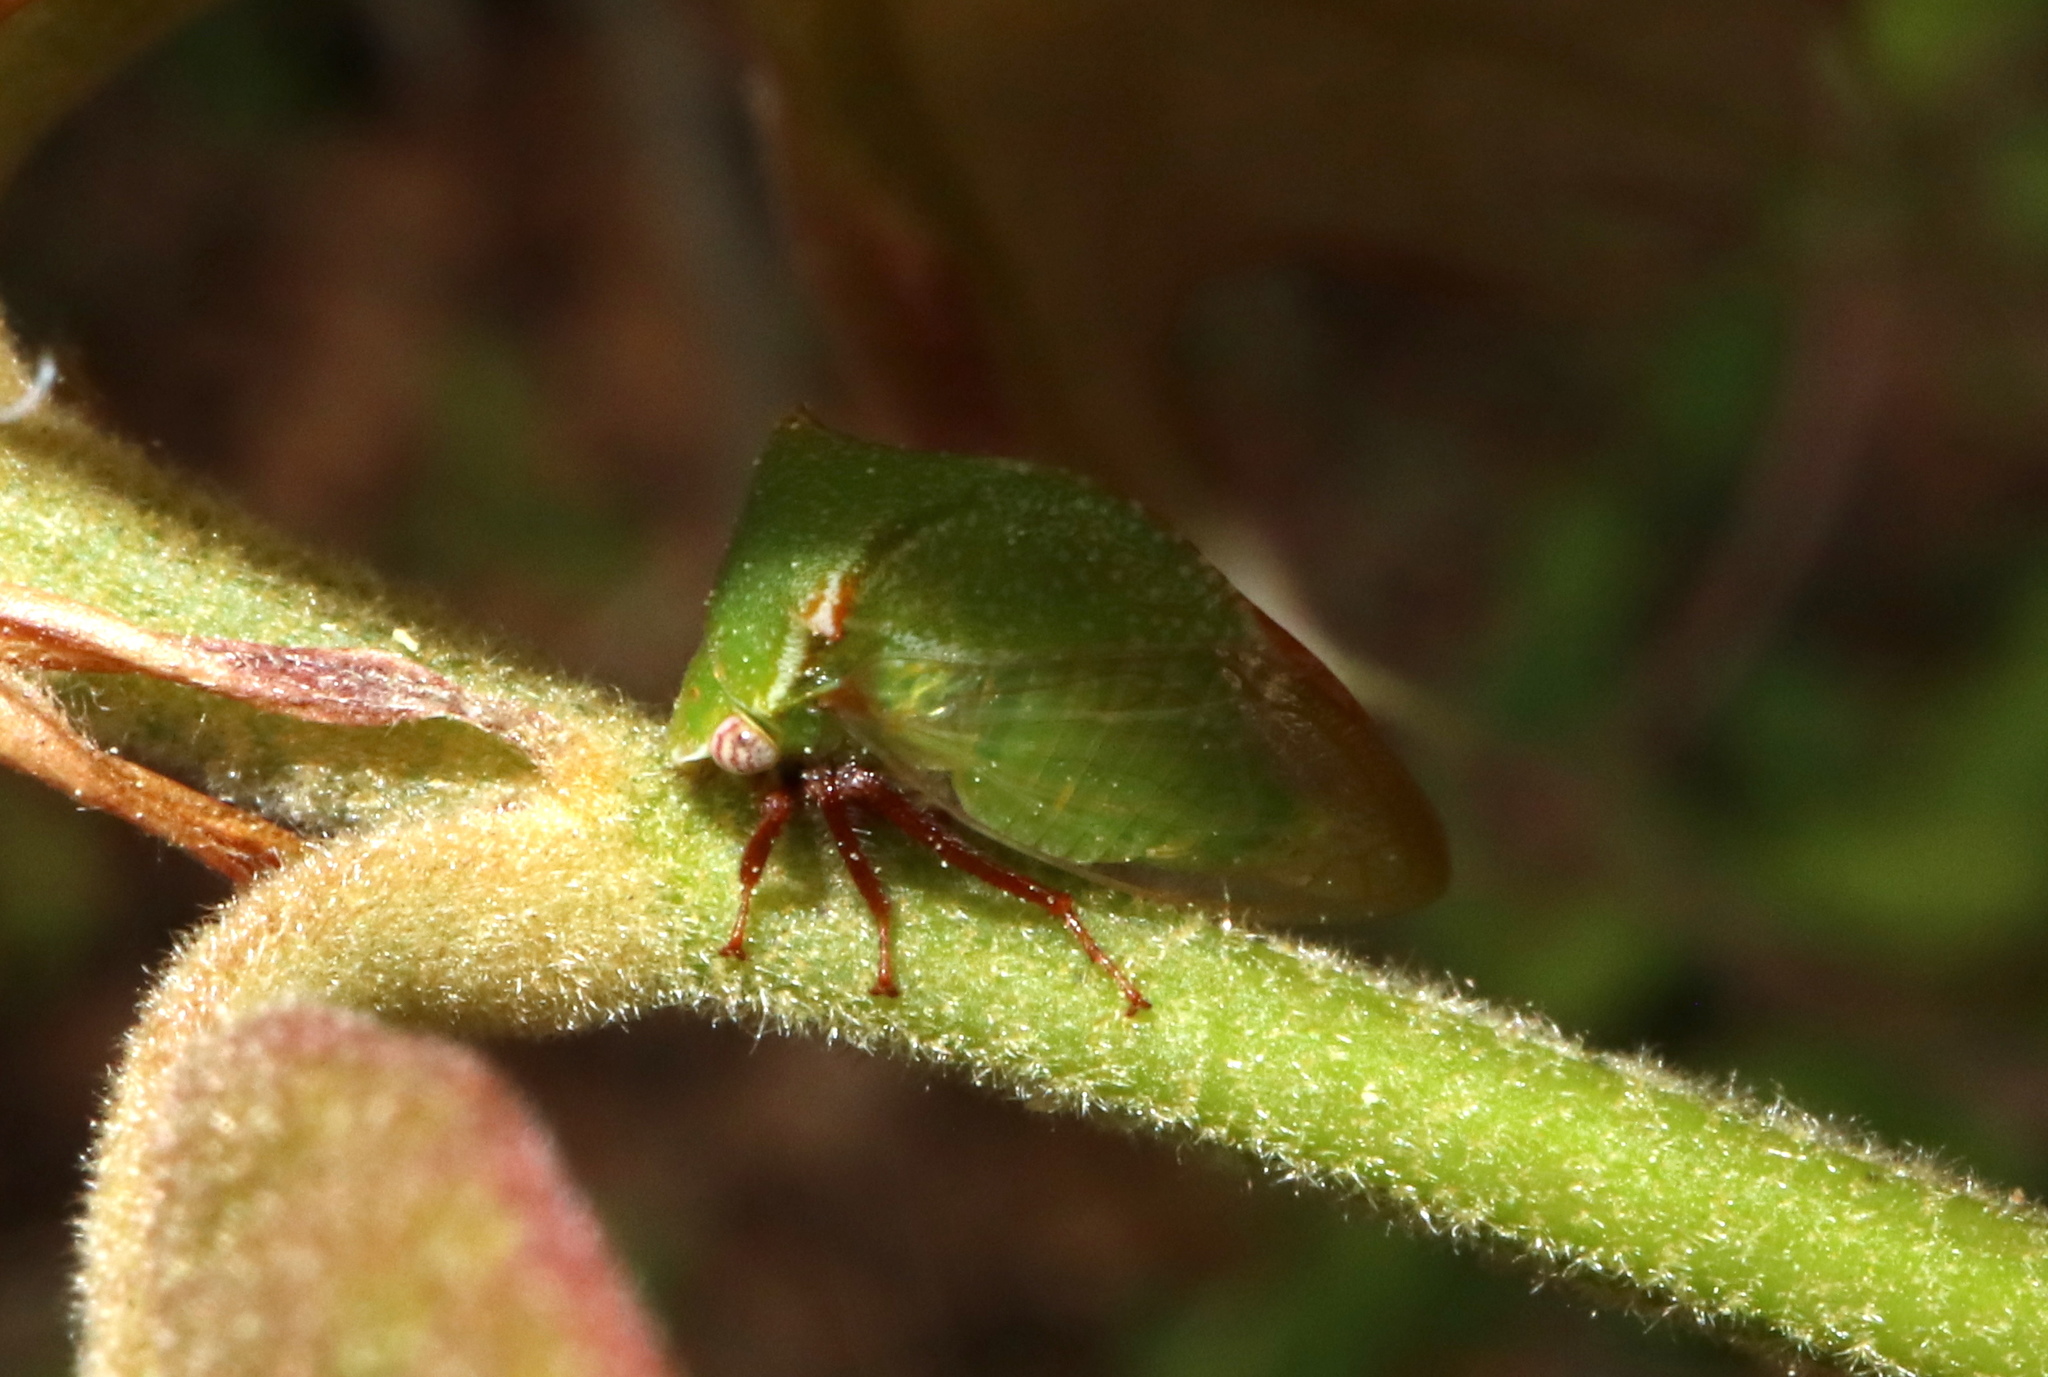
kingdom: Animalia
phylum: Arthropoda
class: Insecta
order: Hemiptera
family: Membracidae
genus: Stictocephala
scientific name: Stictocephala brevitylus
